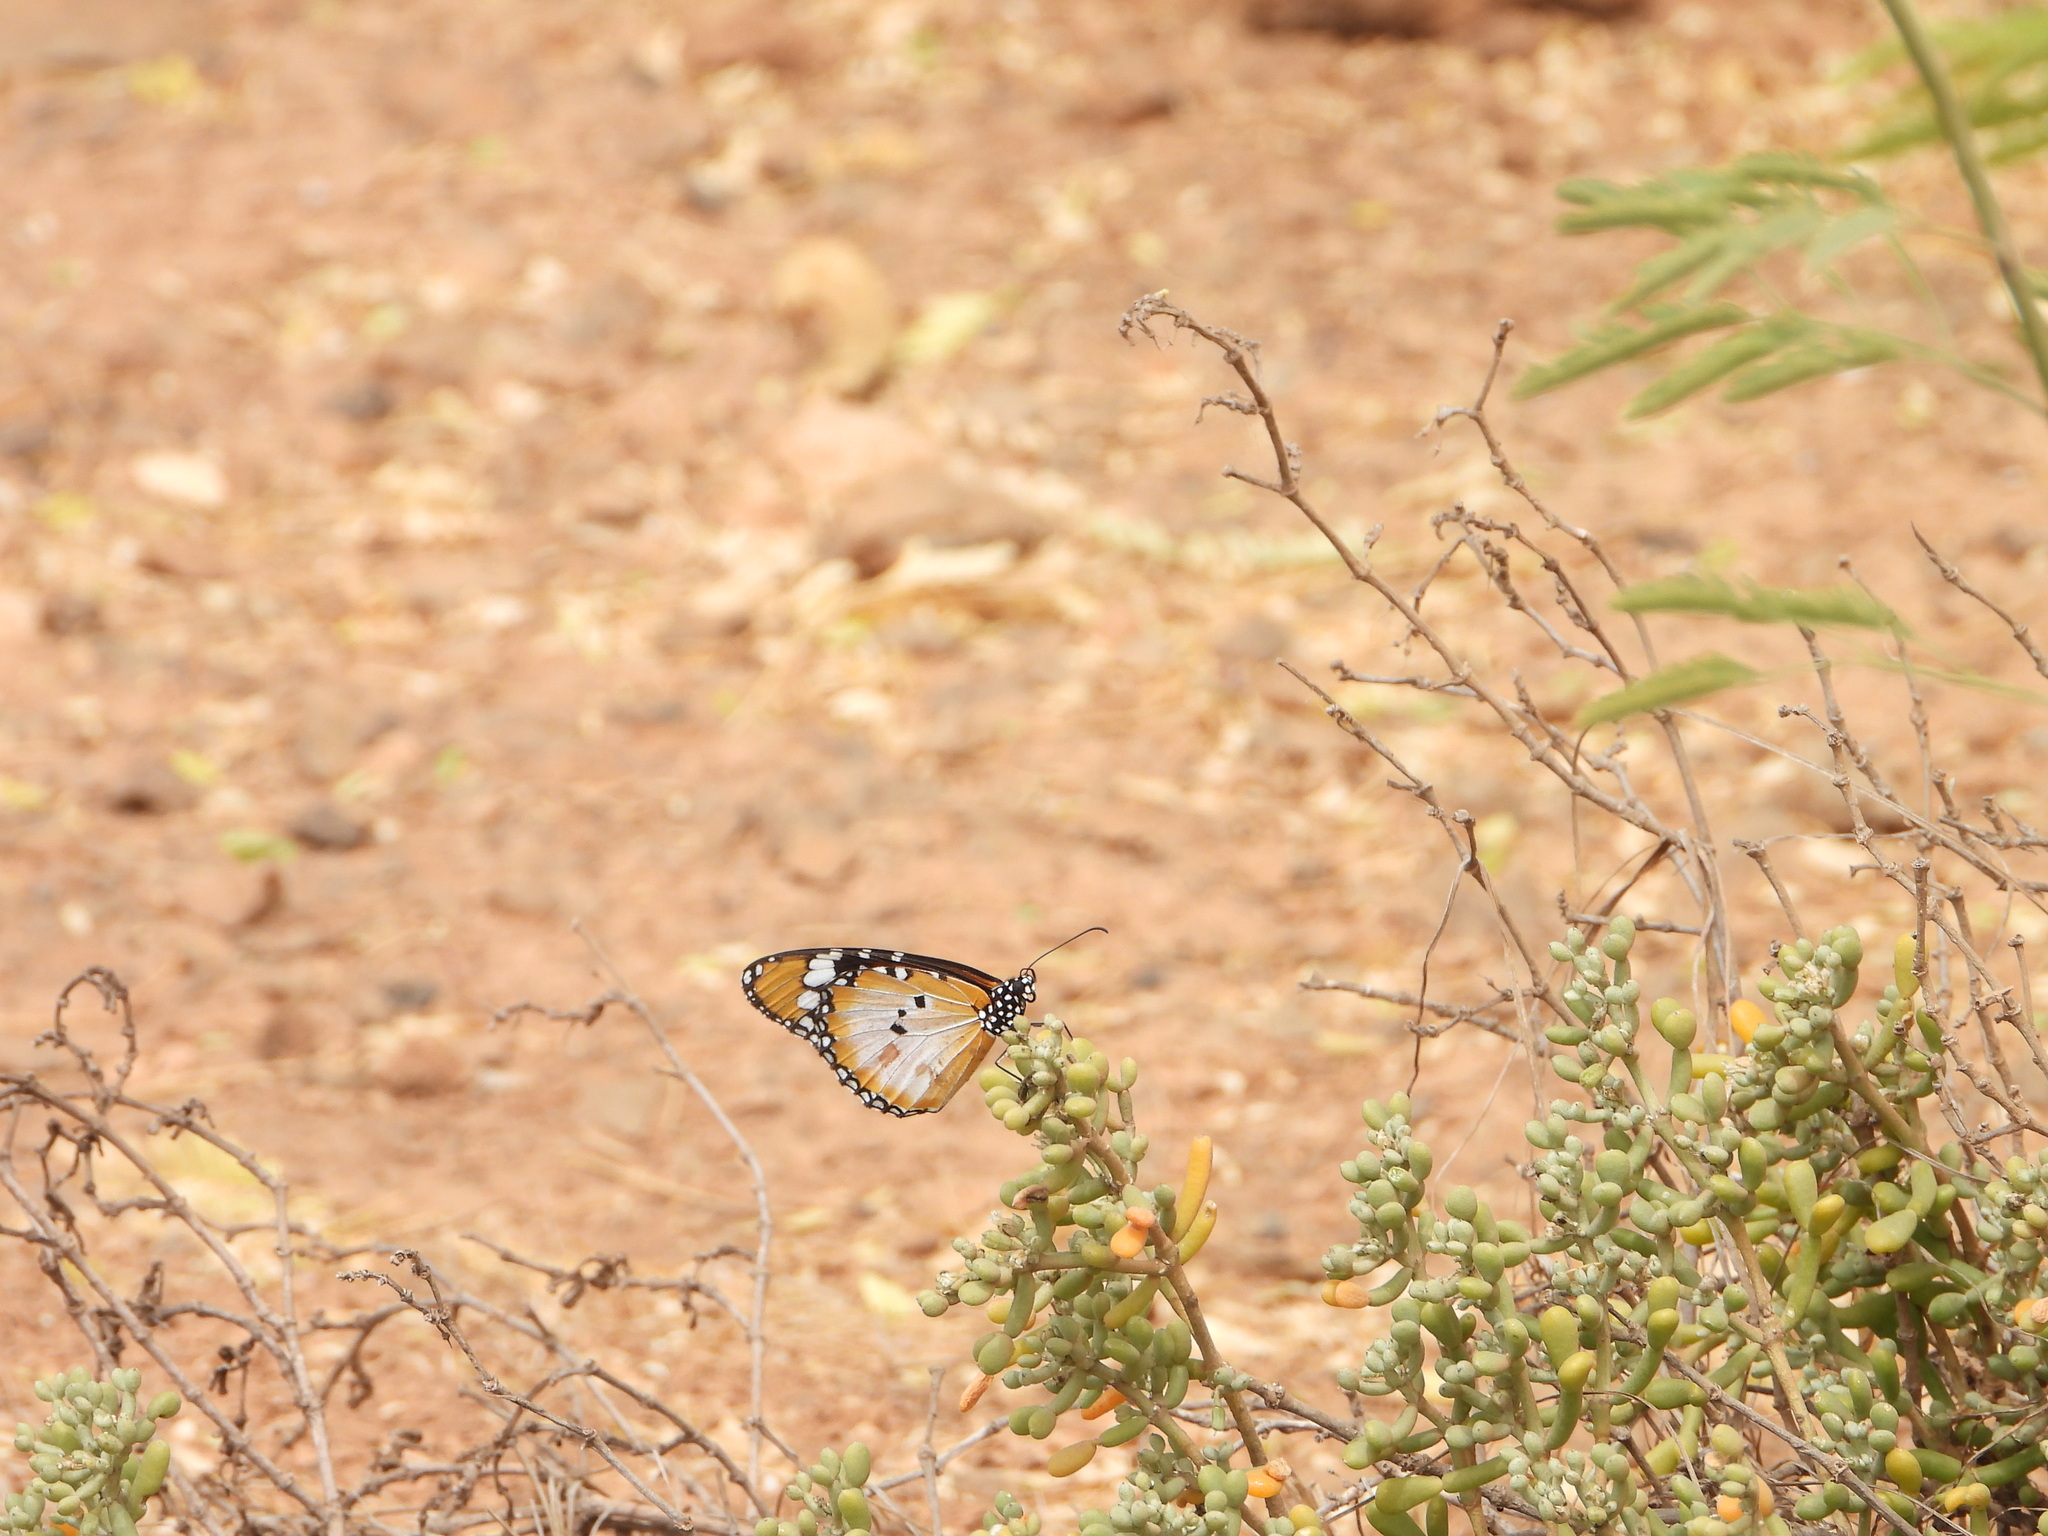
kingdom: Animalia
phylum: Arthropoda
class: Insecta
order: Lepidoptera
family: Nymphalidae
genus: Danaus
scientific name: Danaus chrysippus
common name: Plain tiger
